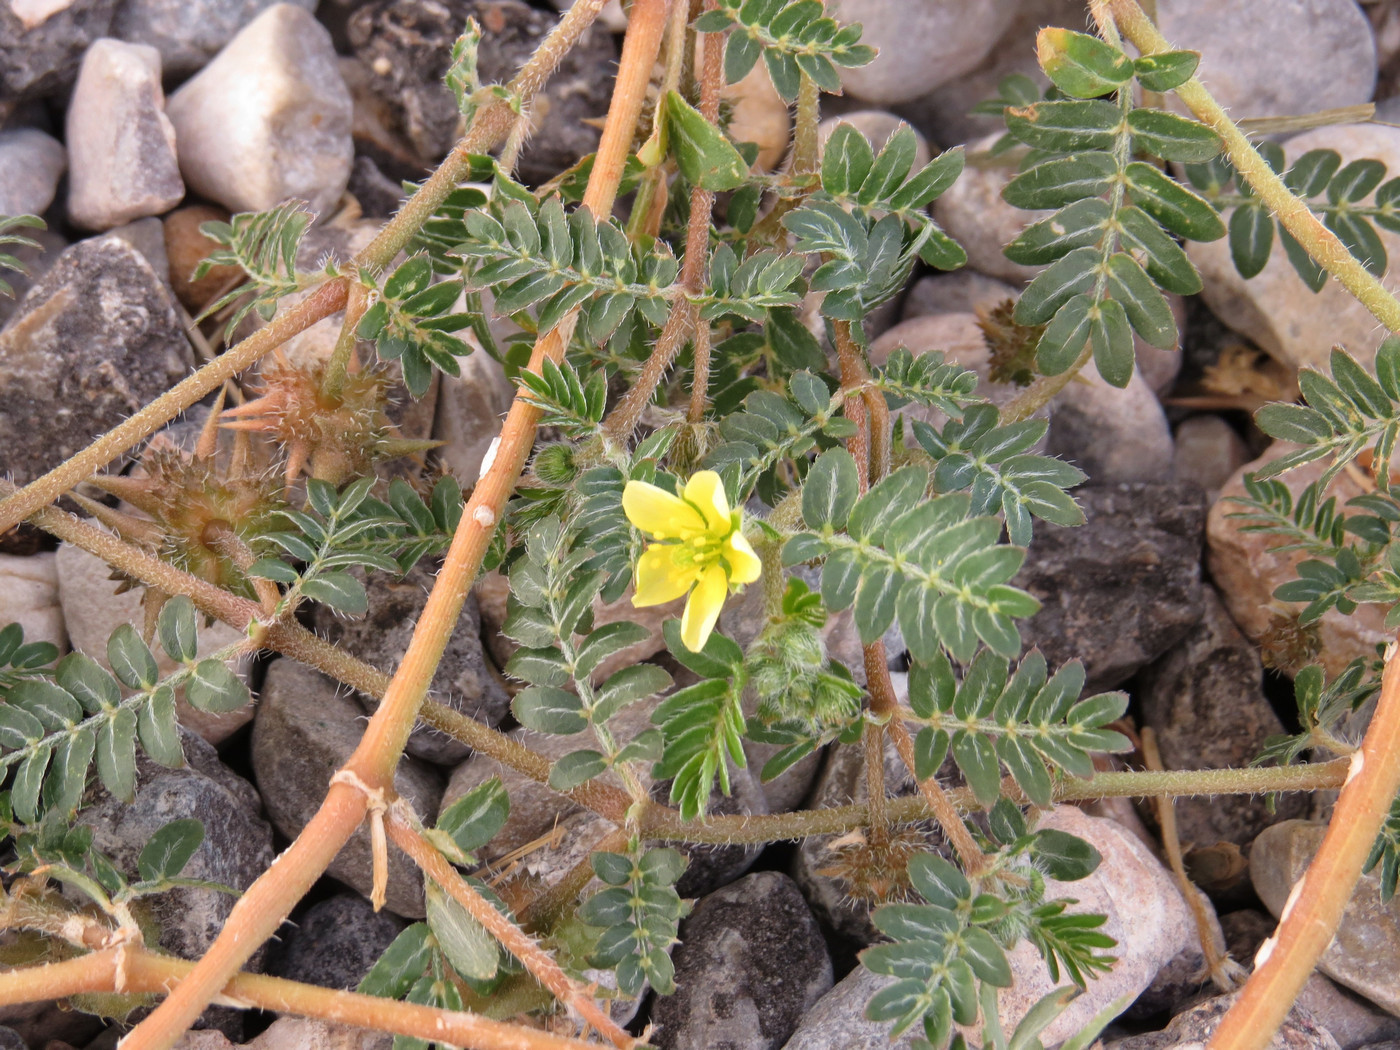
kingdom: Plantae
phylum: Tracheophyta
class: Magnoliopsida
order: Zygophyllales
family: Zygophyllaceae
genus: Tribulus
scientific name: Tribulus terrestris
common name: Puncturevine
